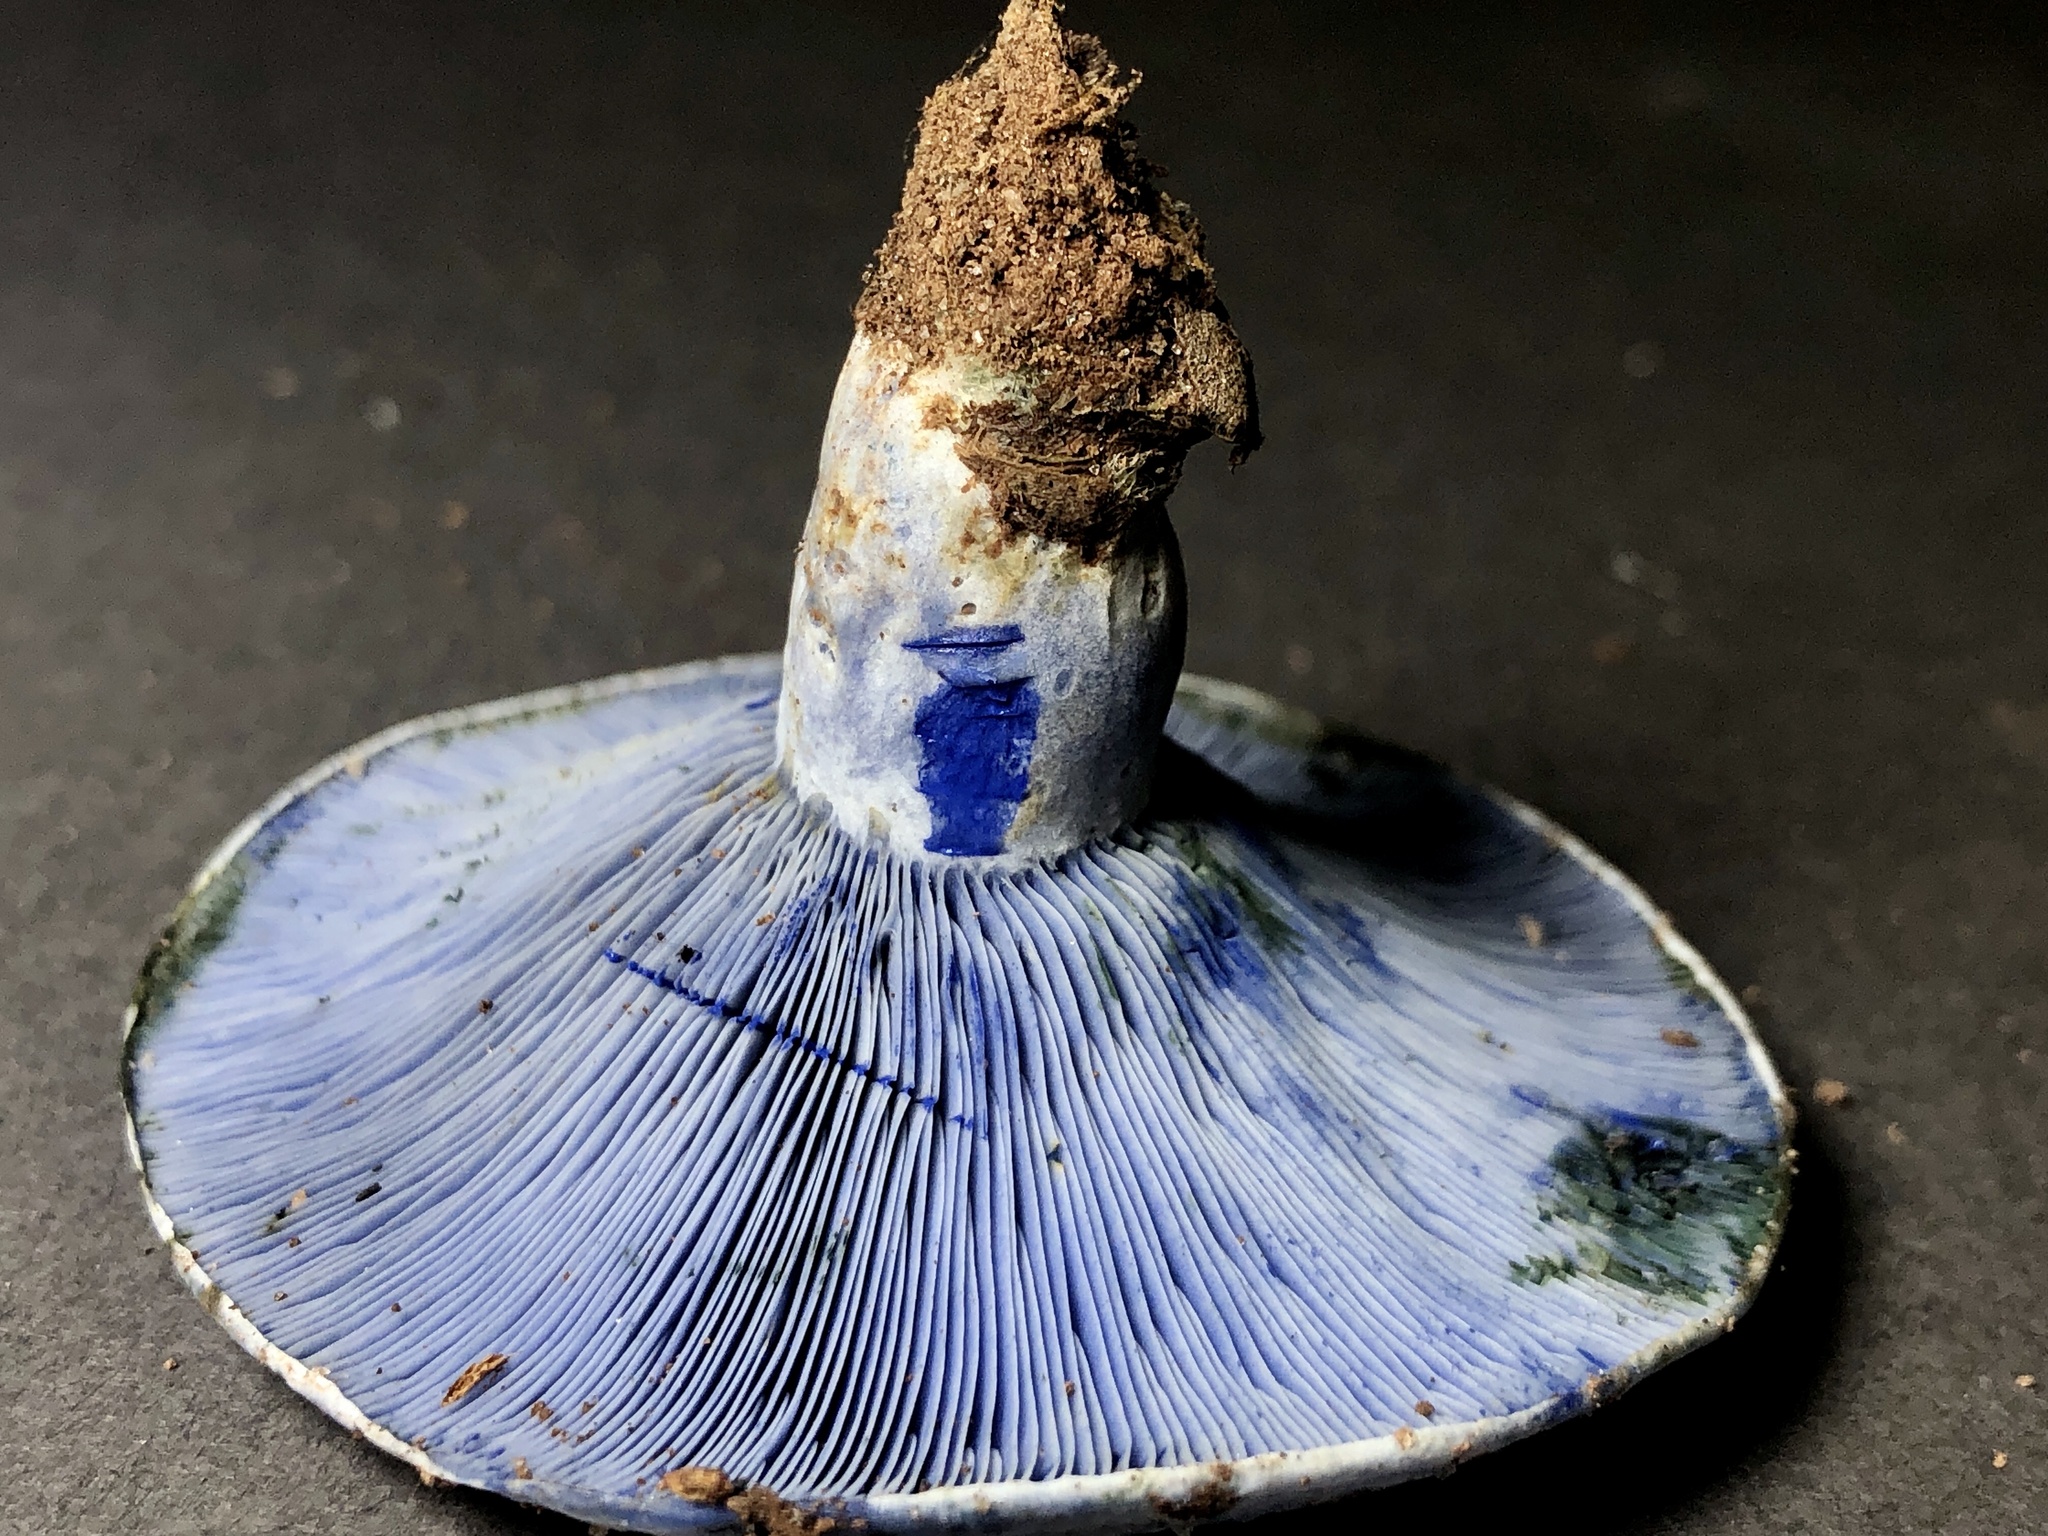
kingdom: Fungi
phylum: Basidiomycota
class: Agaricomycetes
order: Russulales
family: Russulaceae
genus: Lactarius
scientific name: Lactarius indigo
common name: Indigo milk cap
